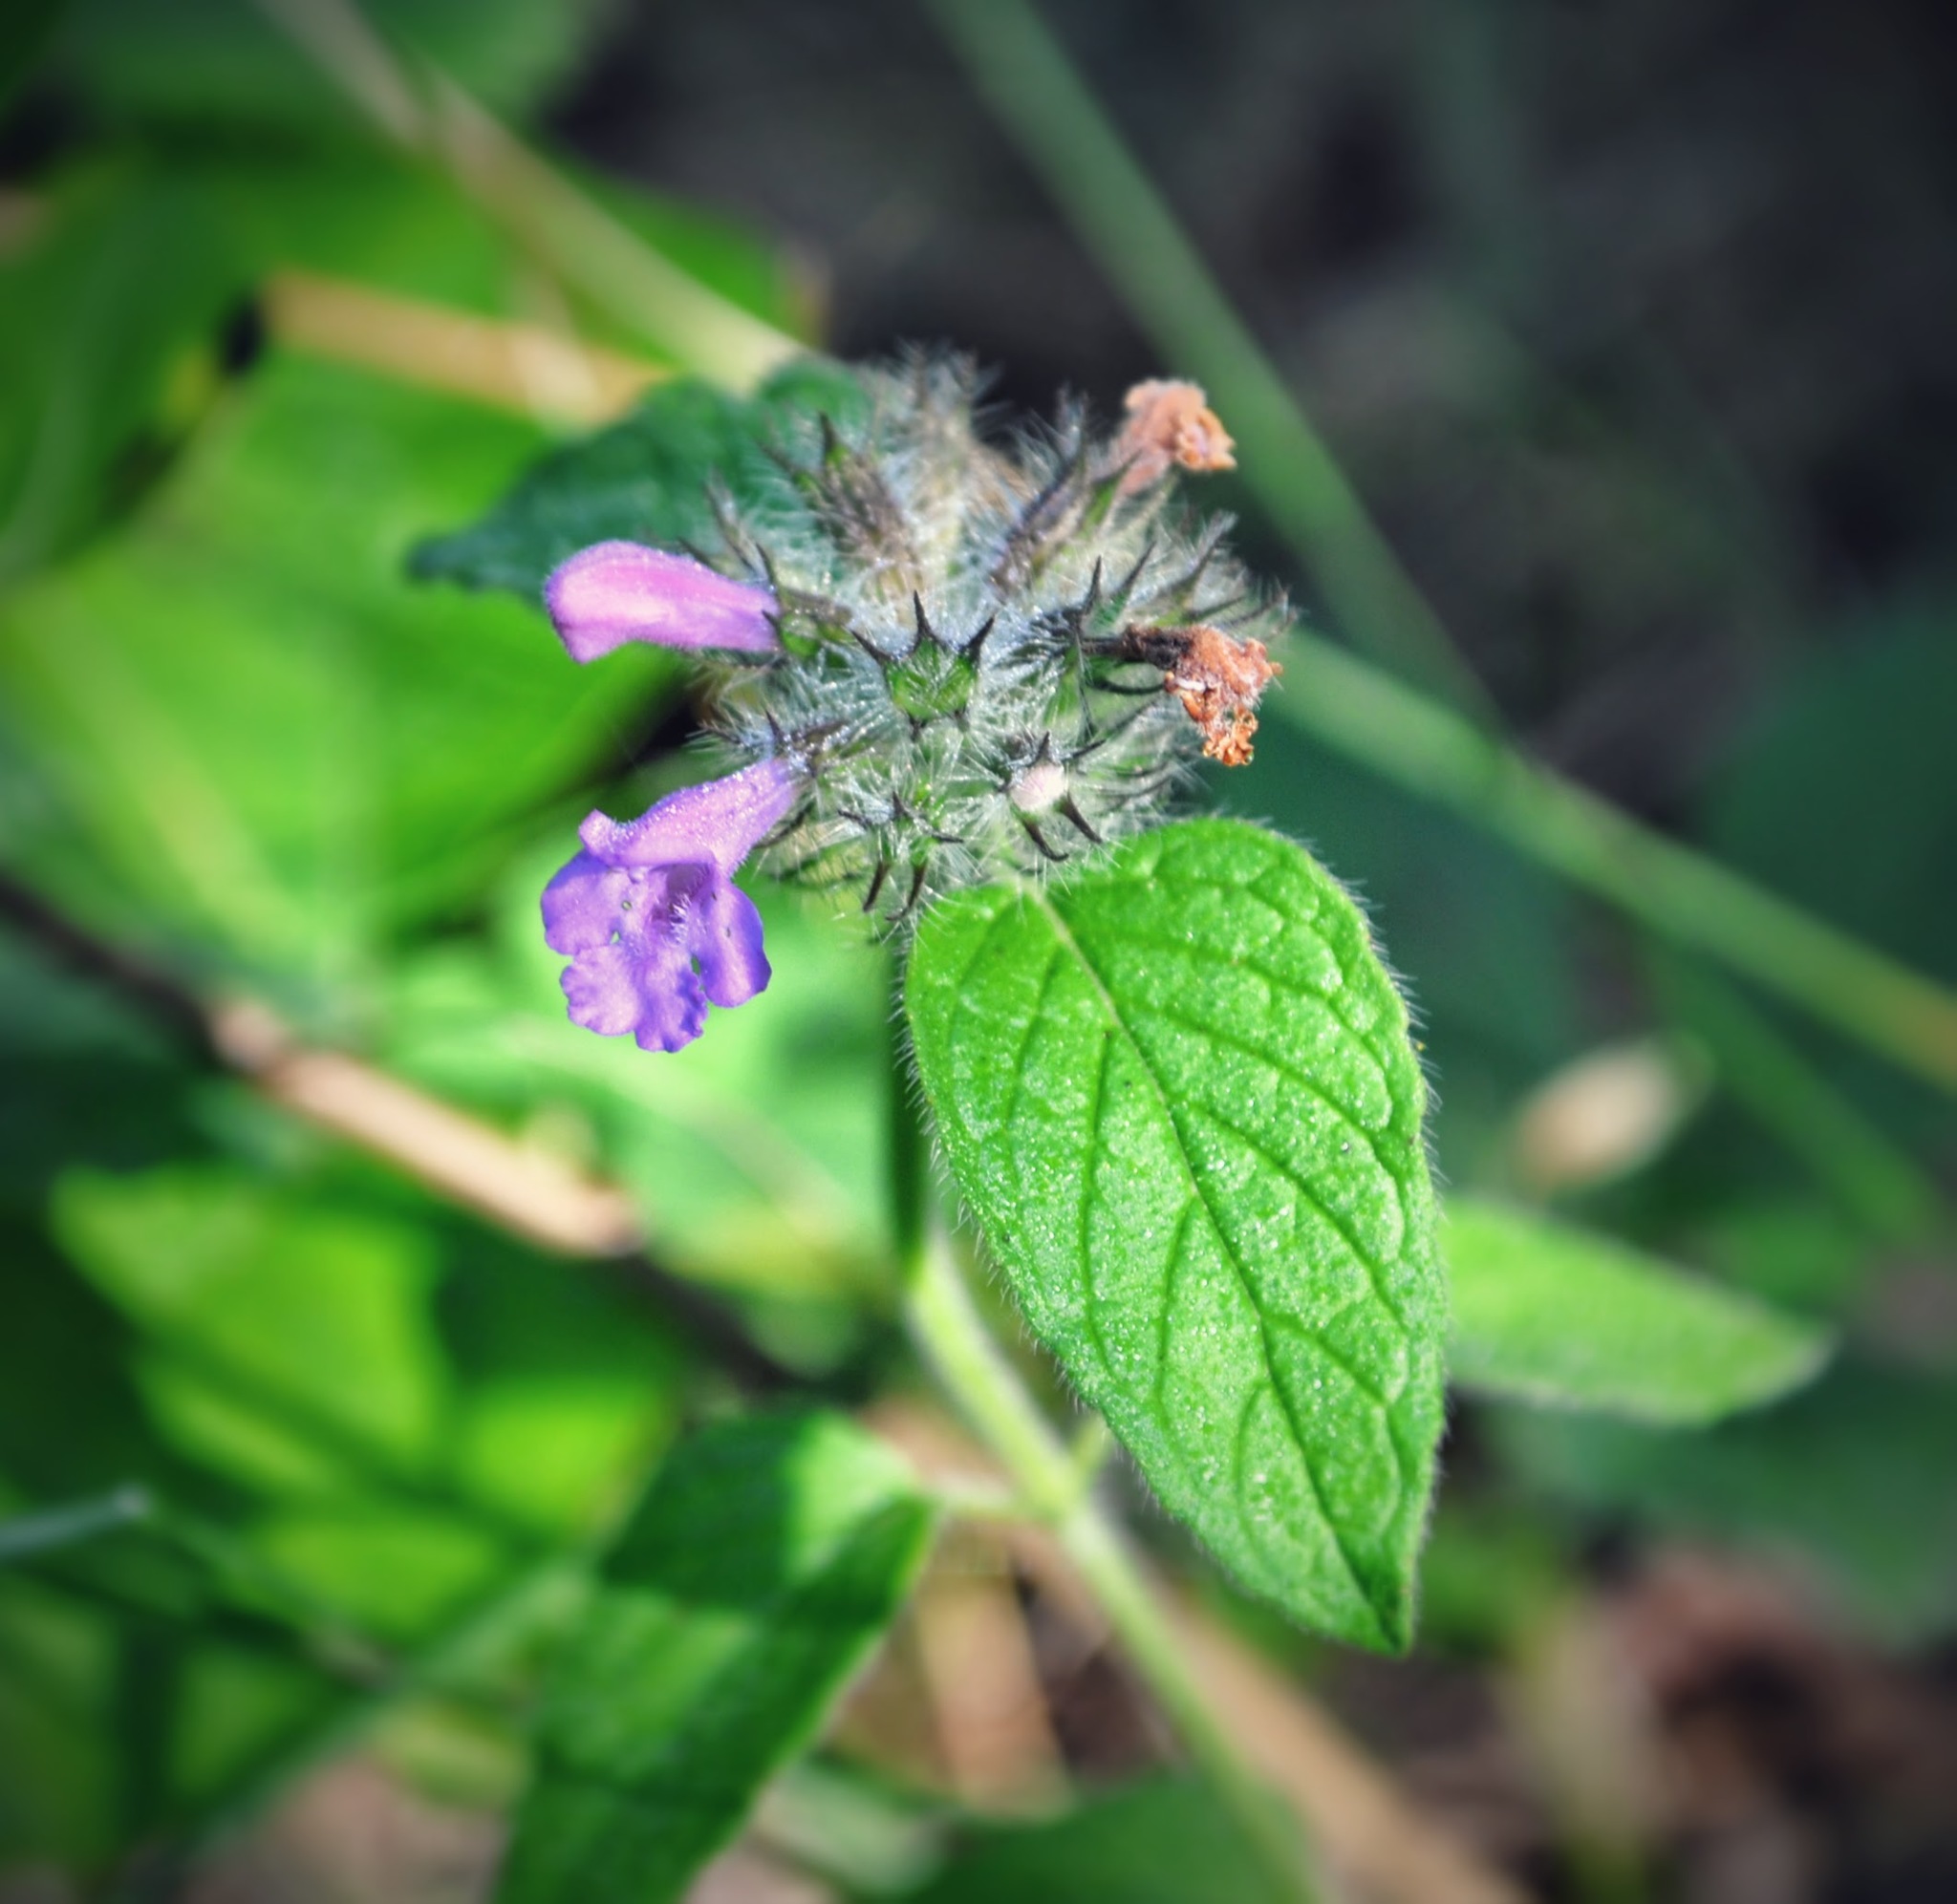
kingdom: Plantae
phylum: Tracheophyta
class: Magnoliopsida
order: Lamiales
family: Lamiaceae
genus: Clinopodium
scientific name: Clinopodium vulgare
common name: Wild basil
